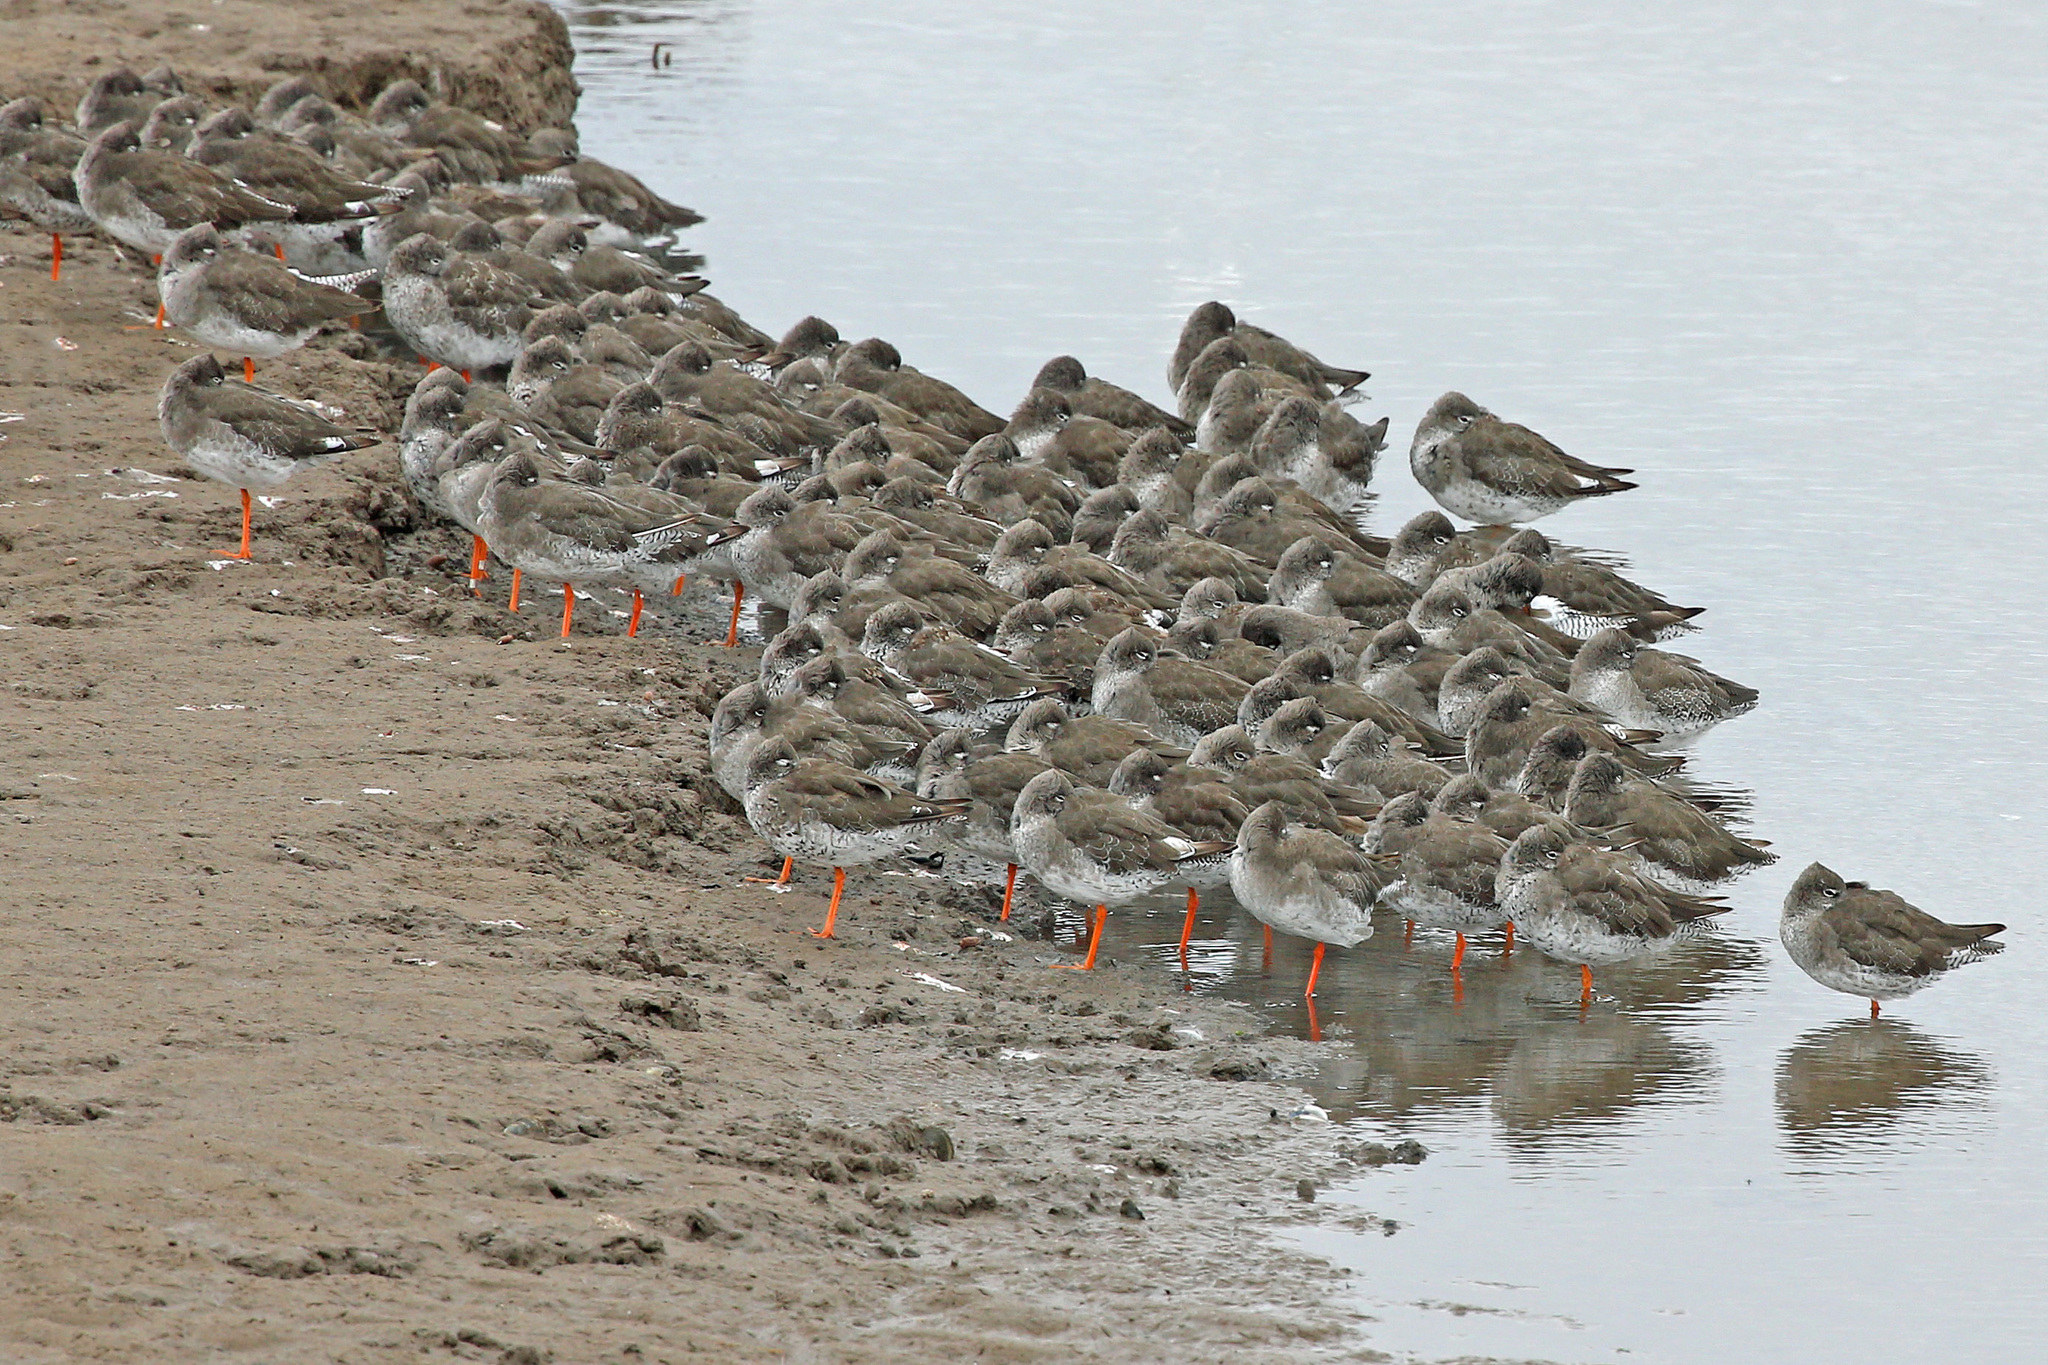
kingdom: Animalia
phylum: Chordata
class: Aves
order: Charadriiformes
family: Scolopacidae
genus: Tringa
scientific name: Tringa totanus
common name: Common redshank
